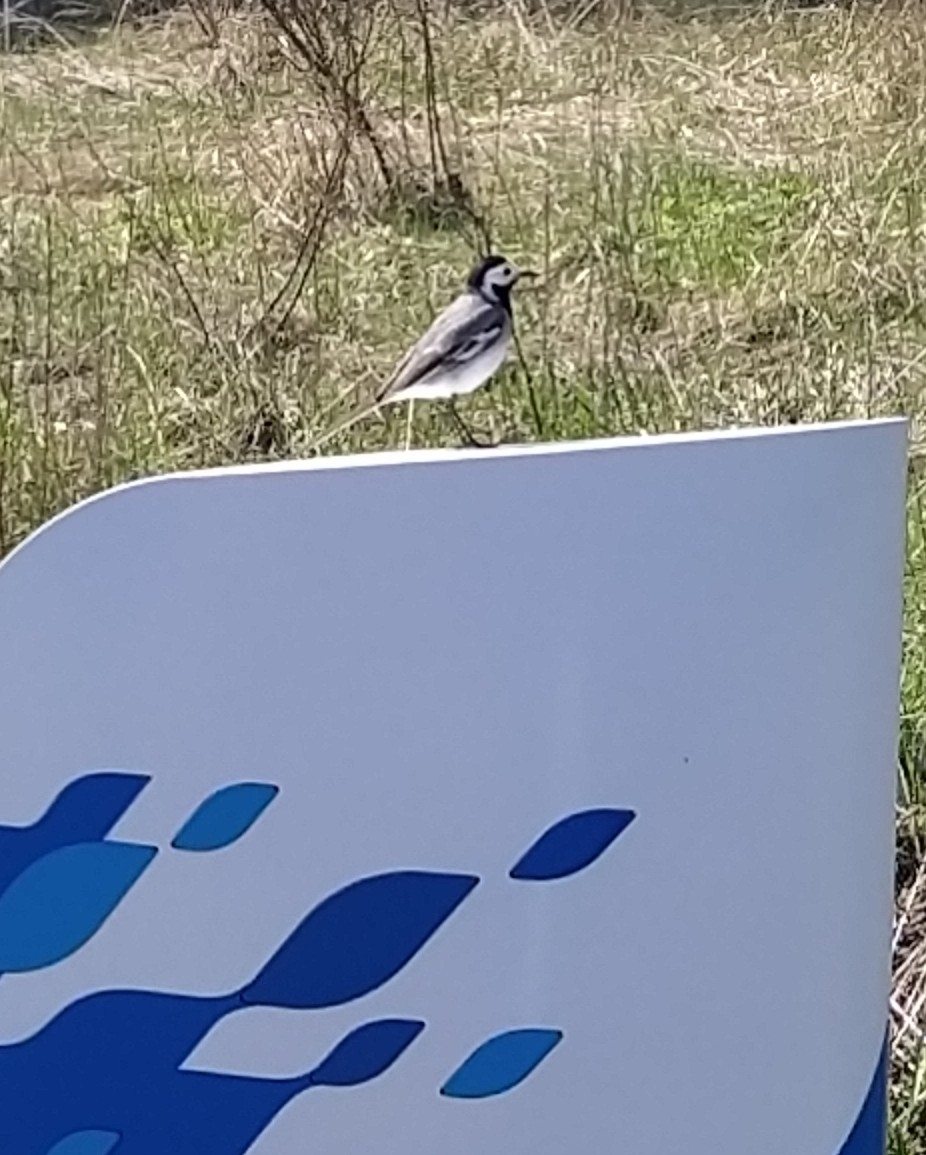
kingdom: Animalia
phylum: Chordata
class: Aves
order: Passeriformes
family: Motacillidae
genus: Motacilla
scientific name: Motacilla alba
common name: White wagtail
